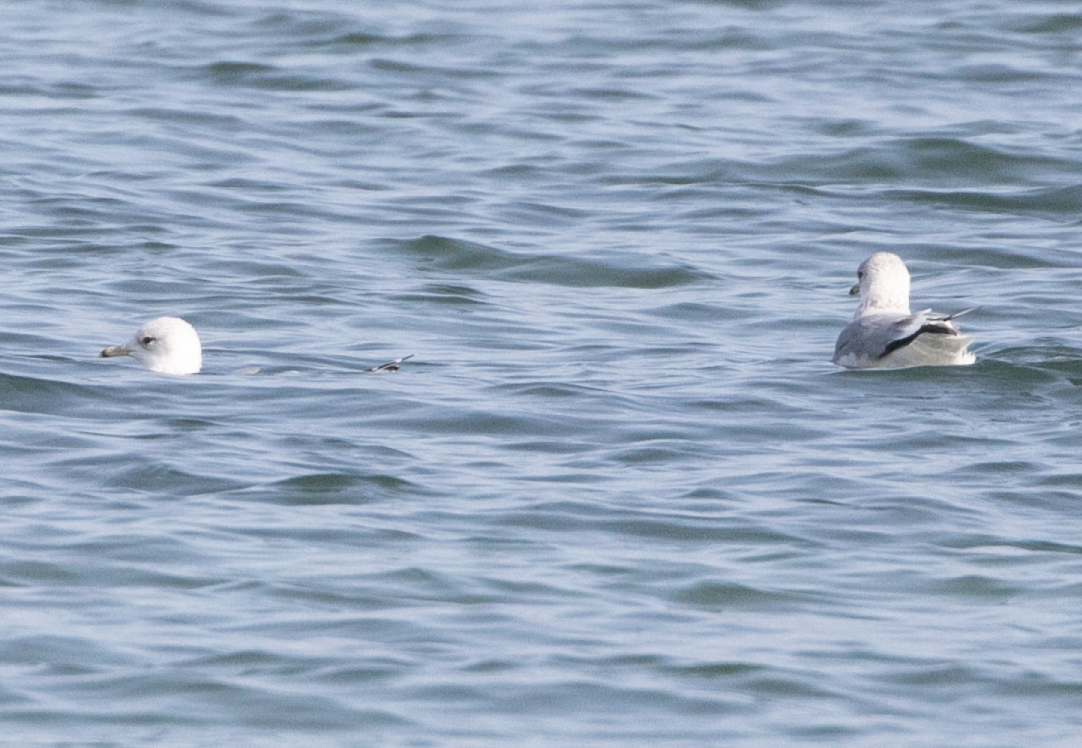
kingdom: Animalia
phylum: Chordata
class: Aves
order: Charadriiformes
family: Laridae
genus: Larus
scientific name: Larus canus
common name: Mew gull
